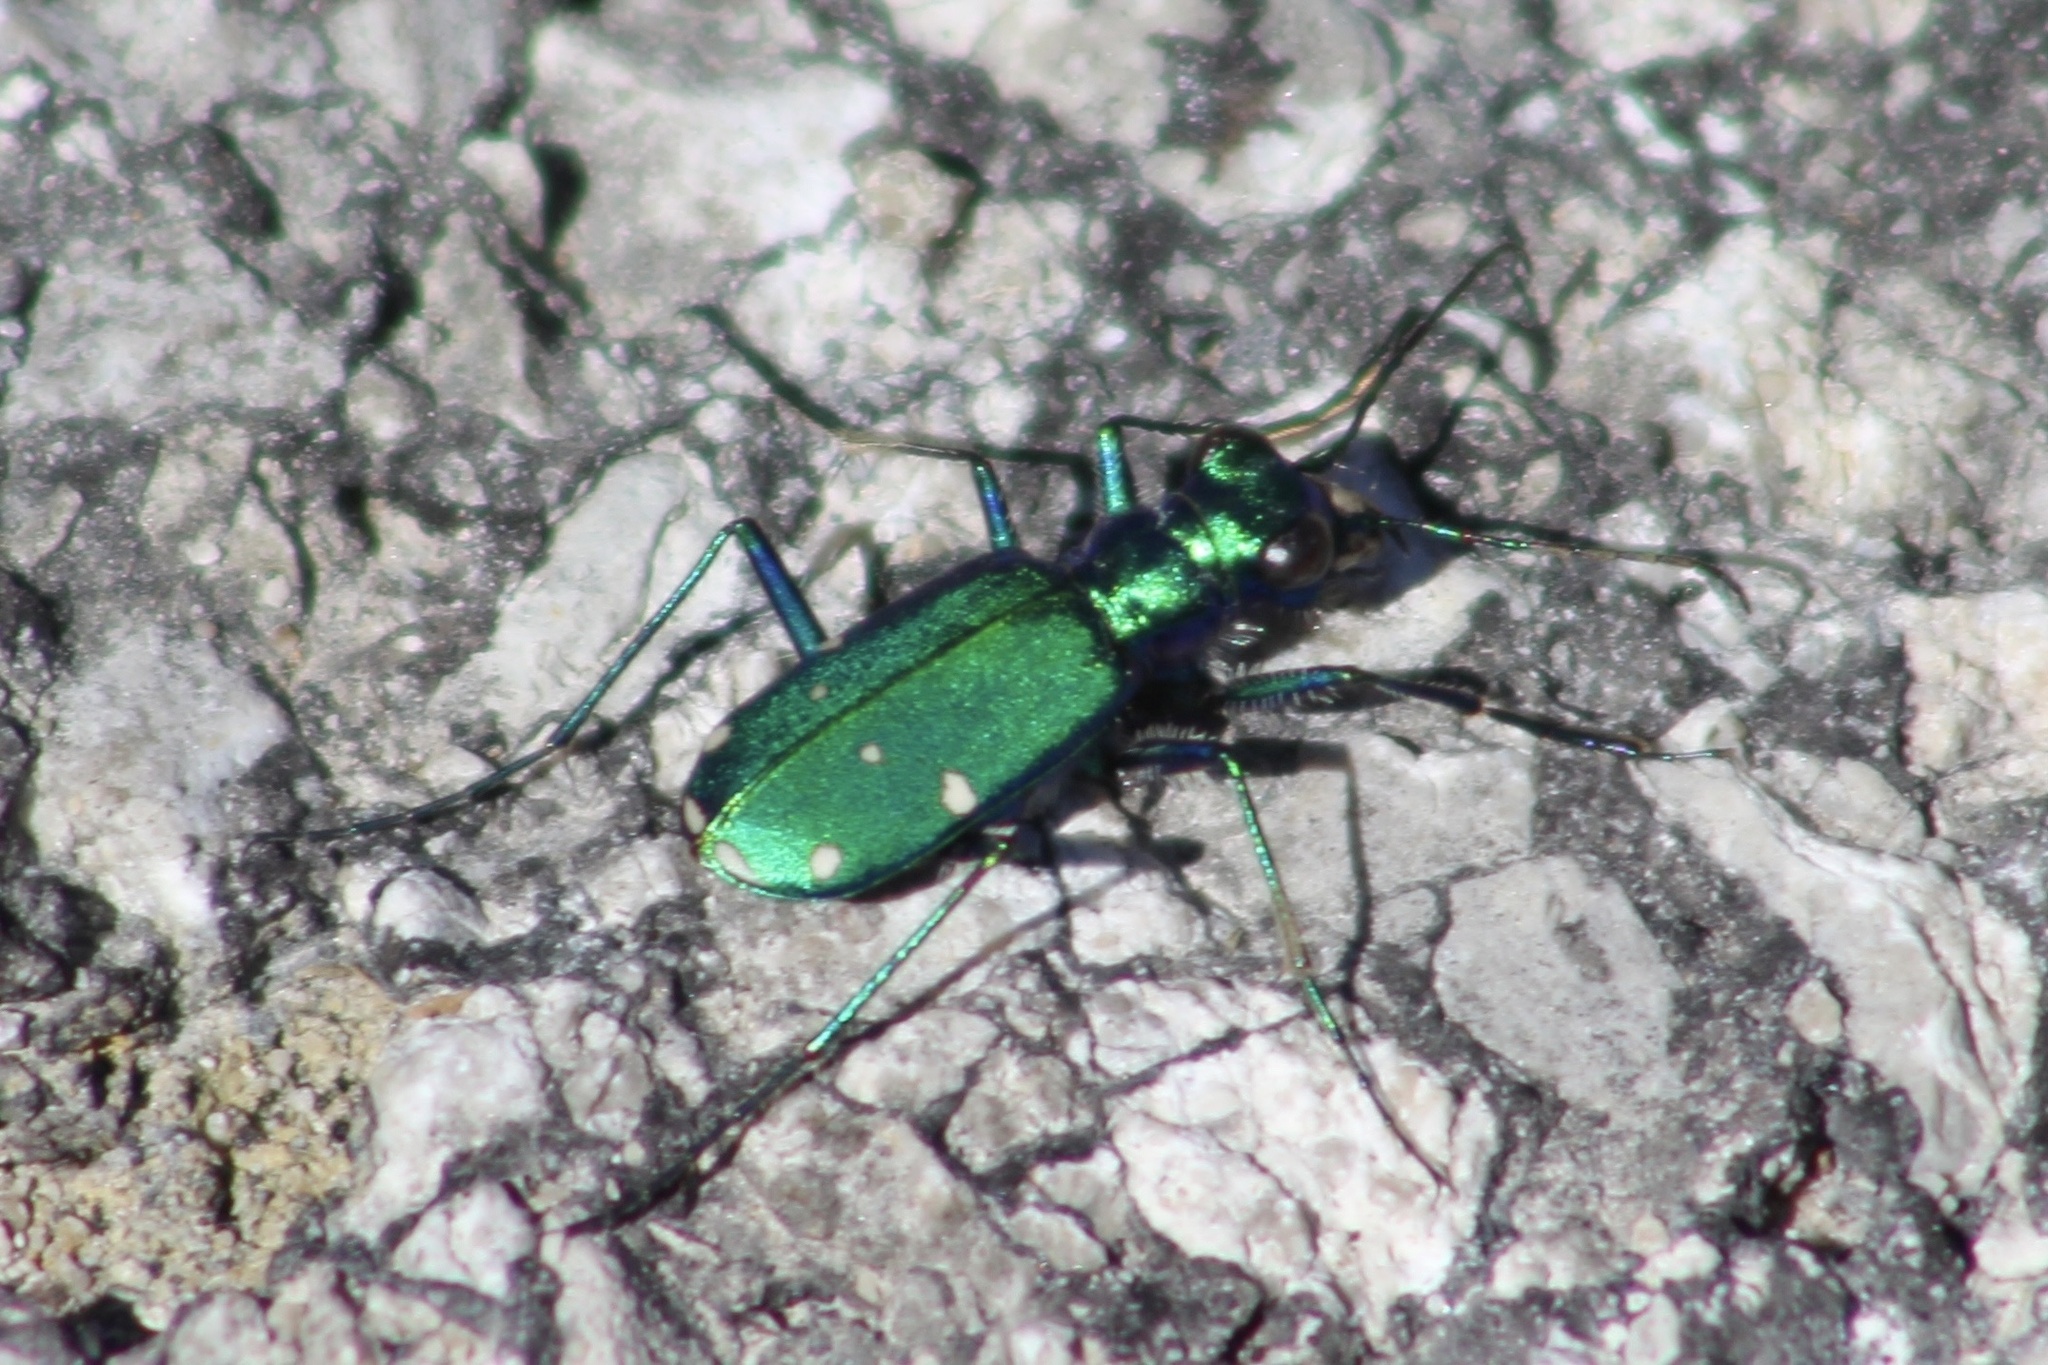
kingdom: Animalia
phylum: Arthropoda
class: Insecta
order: Coleoptera
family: Carabidae
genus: Cicindela
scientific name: Cicindela sexguttata
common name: Six-spotted tiger beetle
